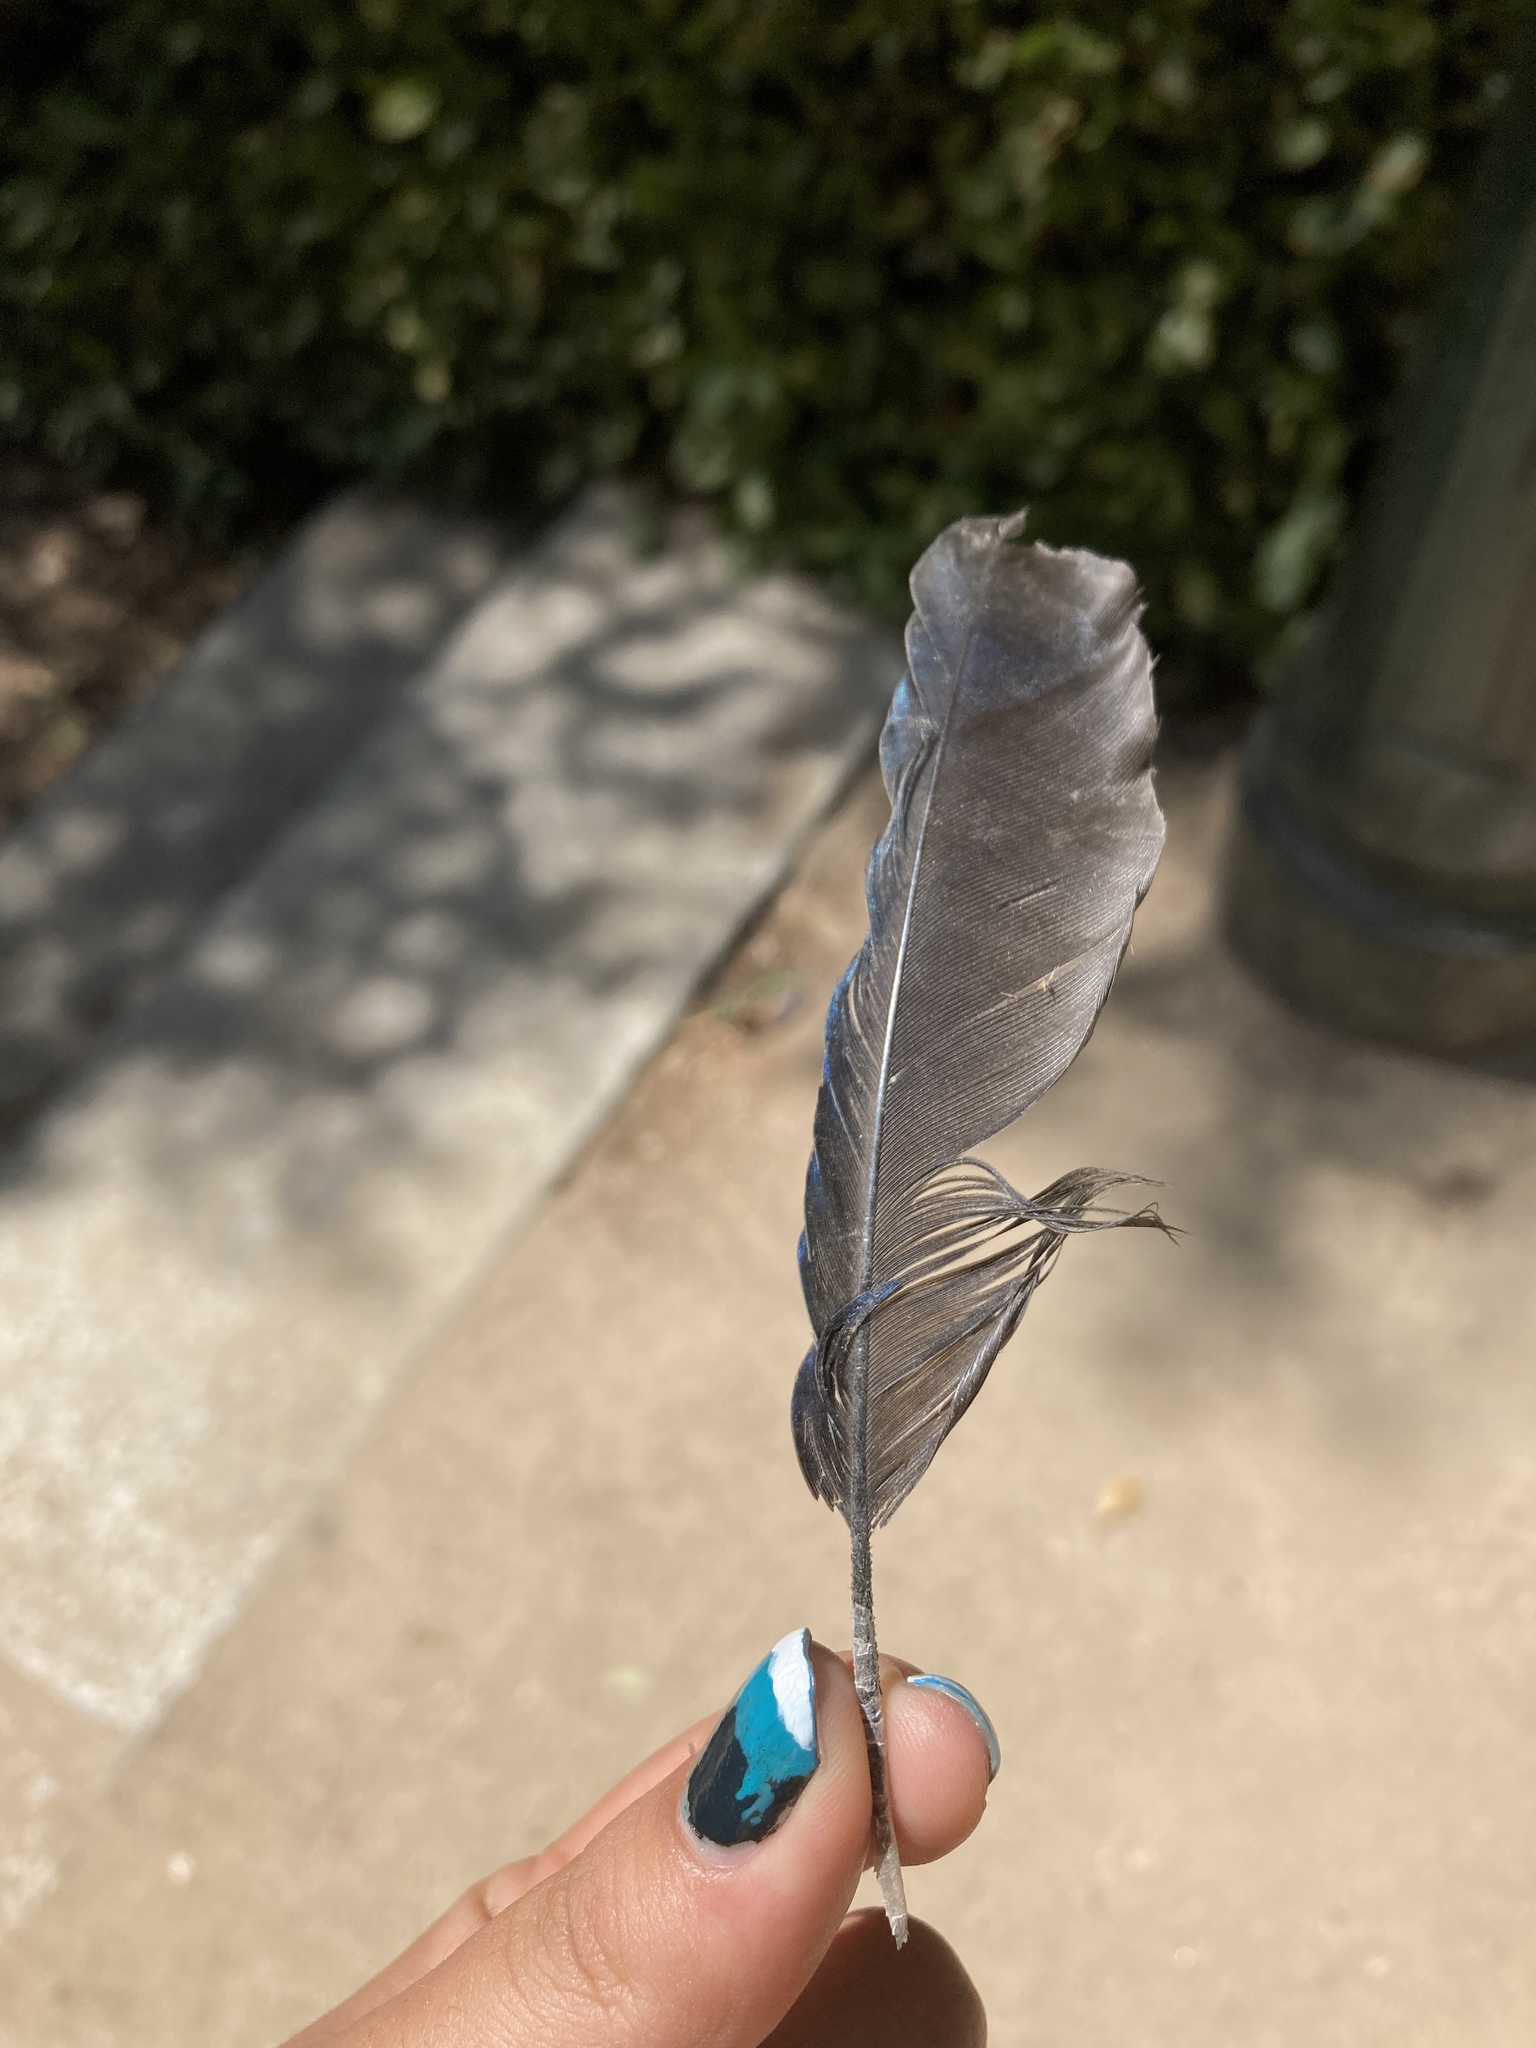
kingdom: Animalia
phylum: Chordata
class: Aves
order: Passeriformes
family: Corvidae
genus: Pica
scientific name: Pica pica
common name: Eurasian magpie
